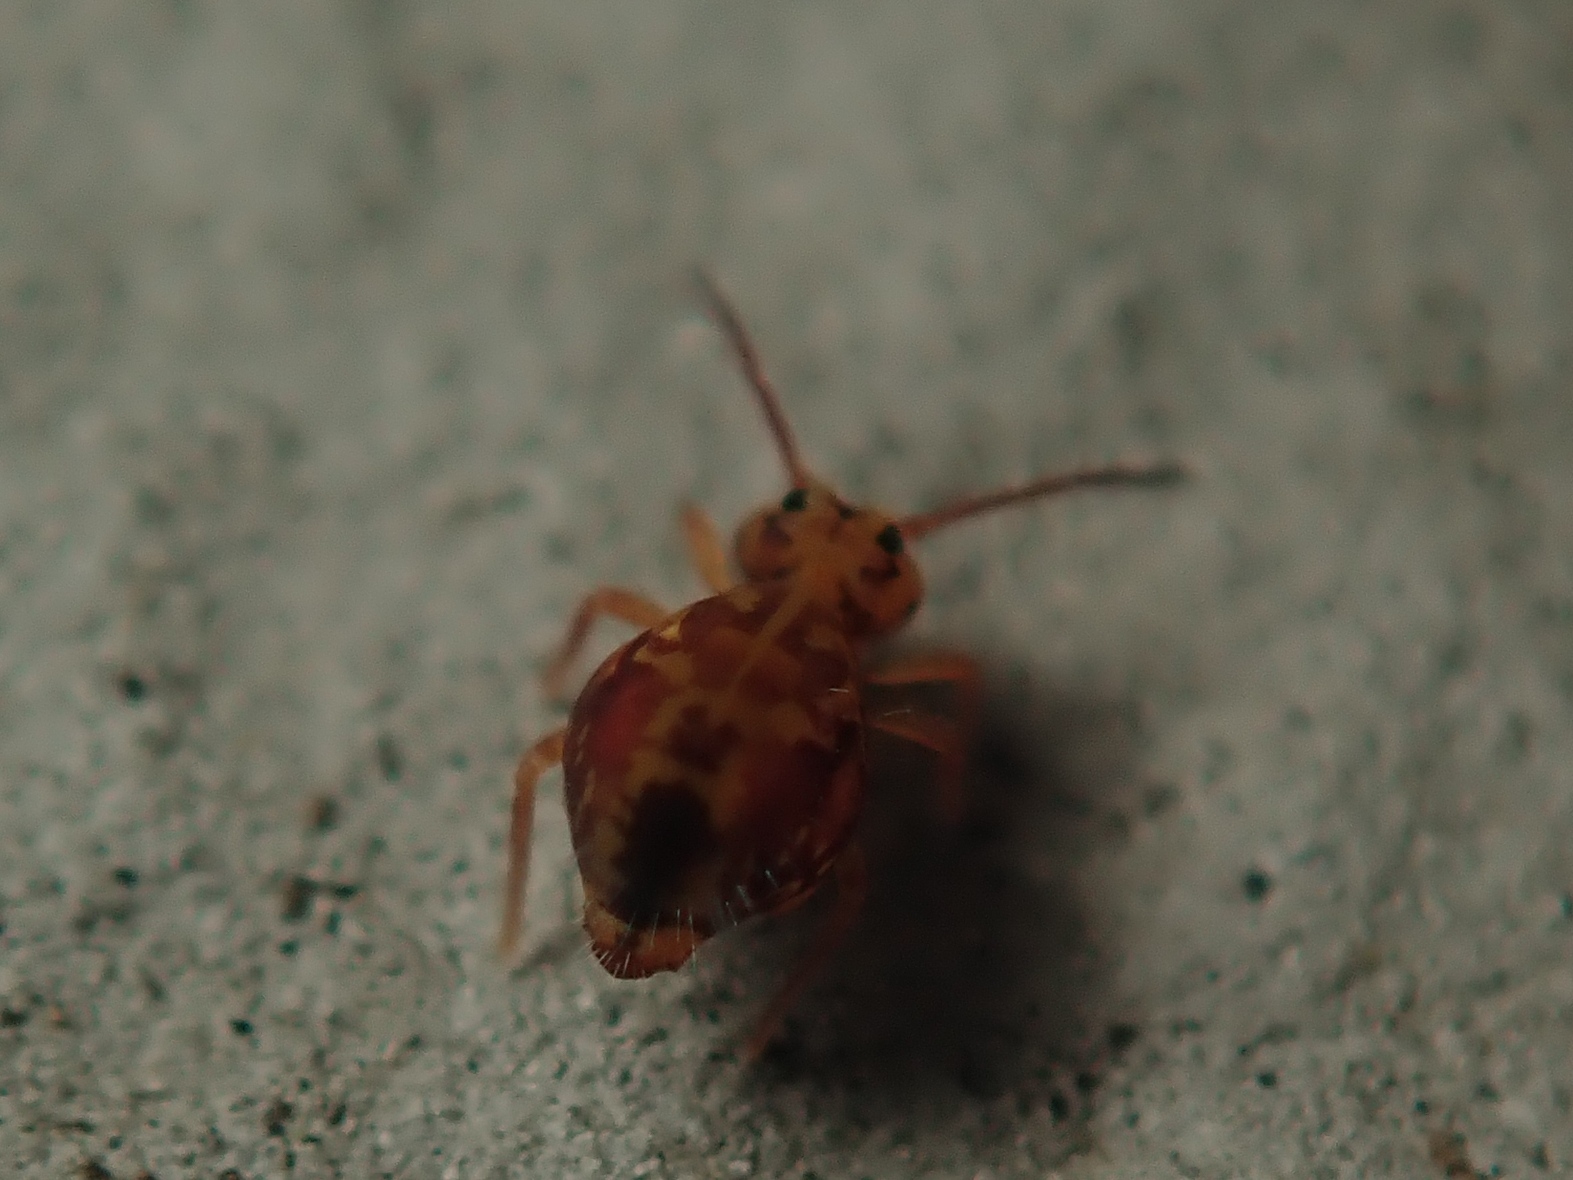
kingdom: Animalia
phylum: Arthropoda
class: Collembola
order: Symphypleona
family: Dicyrtomidae
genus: Dicyrtomina
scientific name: Dicyrtomina ornata
